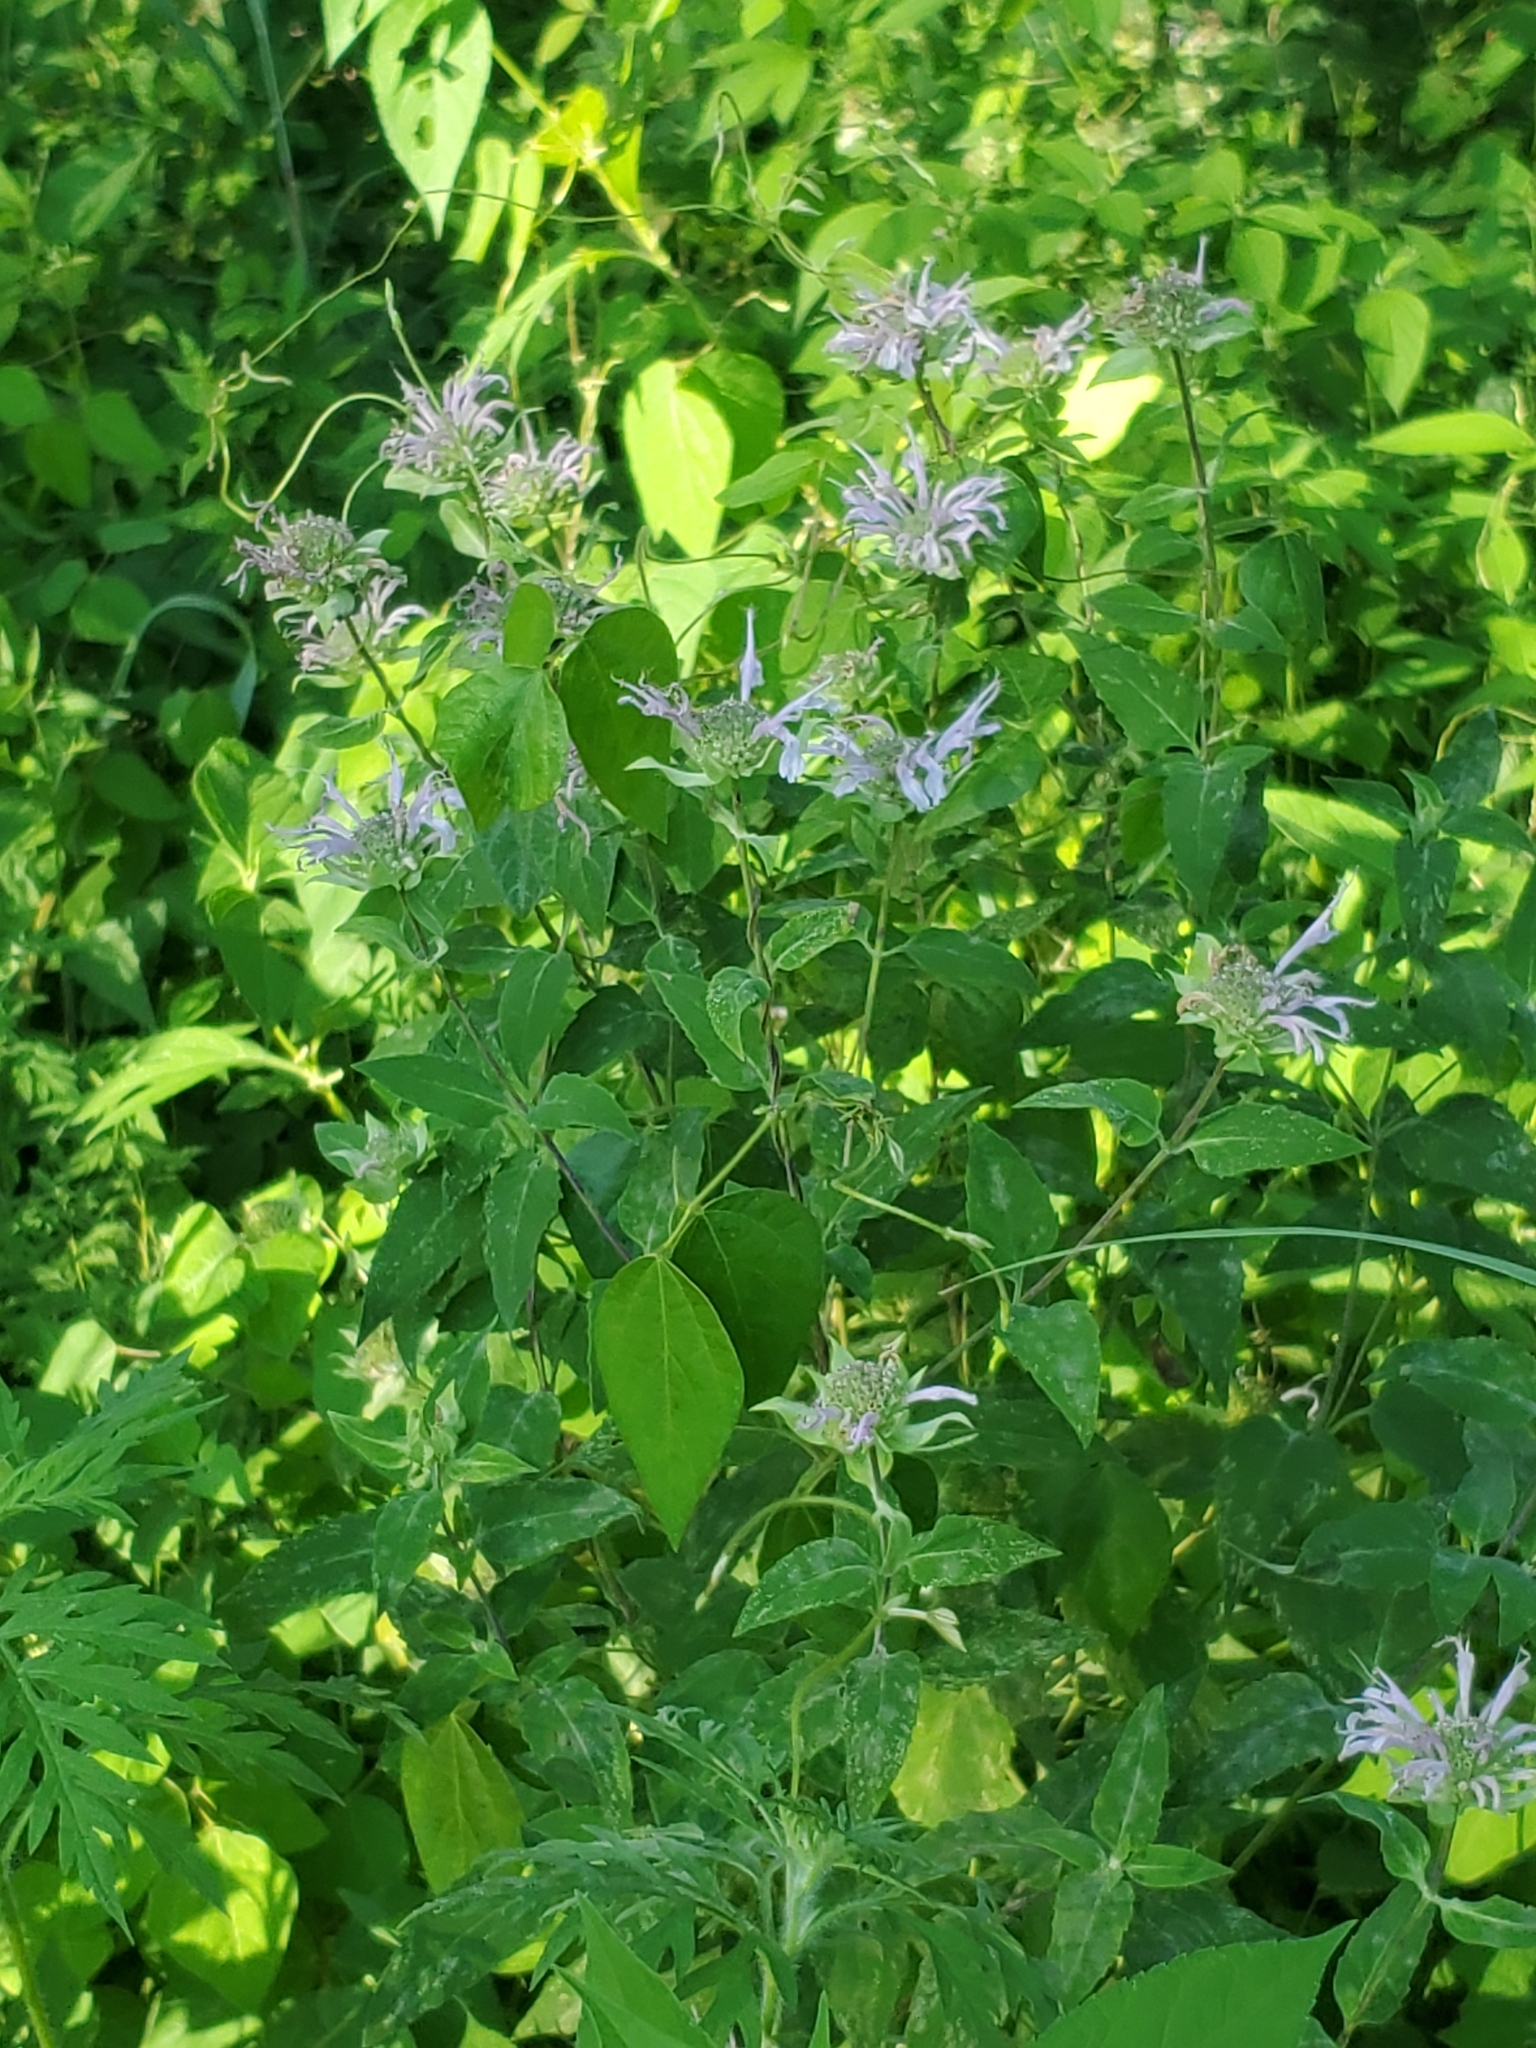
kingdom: Plantae
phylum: Tracheophyta
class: Magnoliopsida
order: Lamiales
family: Lamiaceae
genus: Monarda
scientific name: Monarda fistulosa
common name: Purple beebalm
